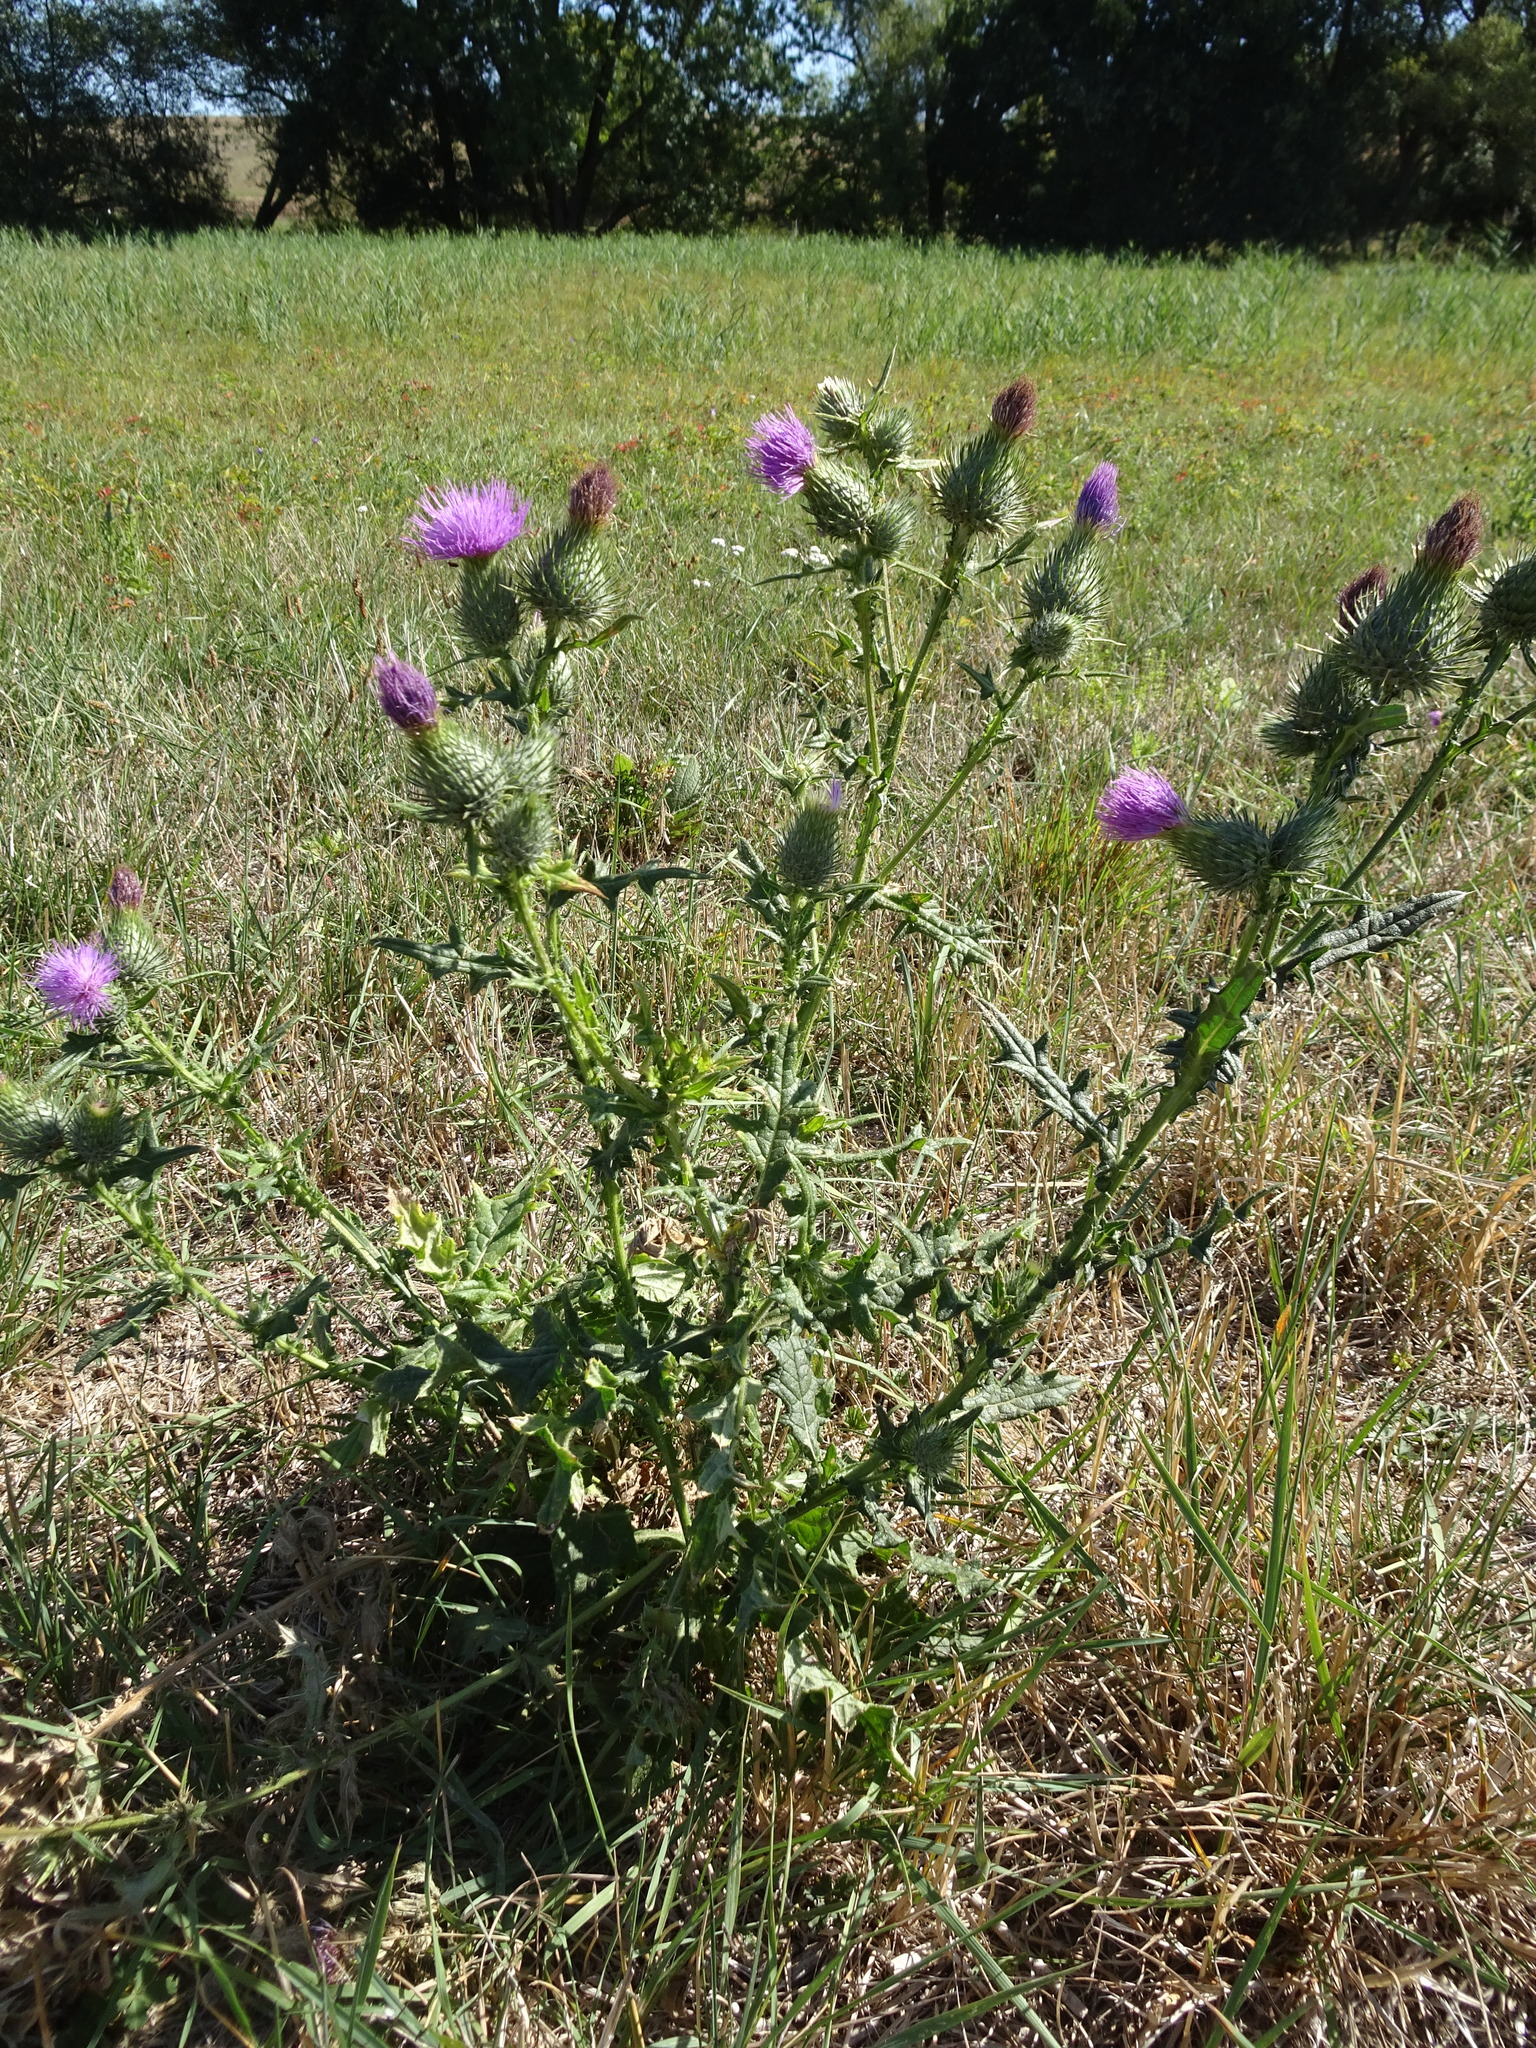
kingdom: Plantae
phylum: Tracheophyta
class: Magnoliopsida
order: Asterales
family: Asteraceae
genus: Cirsium
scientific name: Cirsium vulgare
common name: Bull thistle
